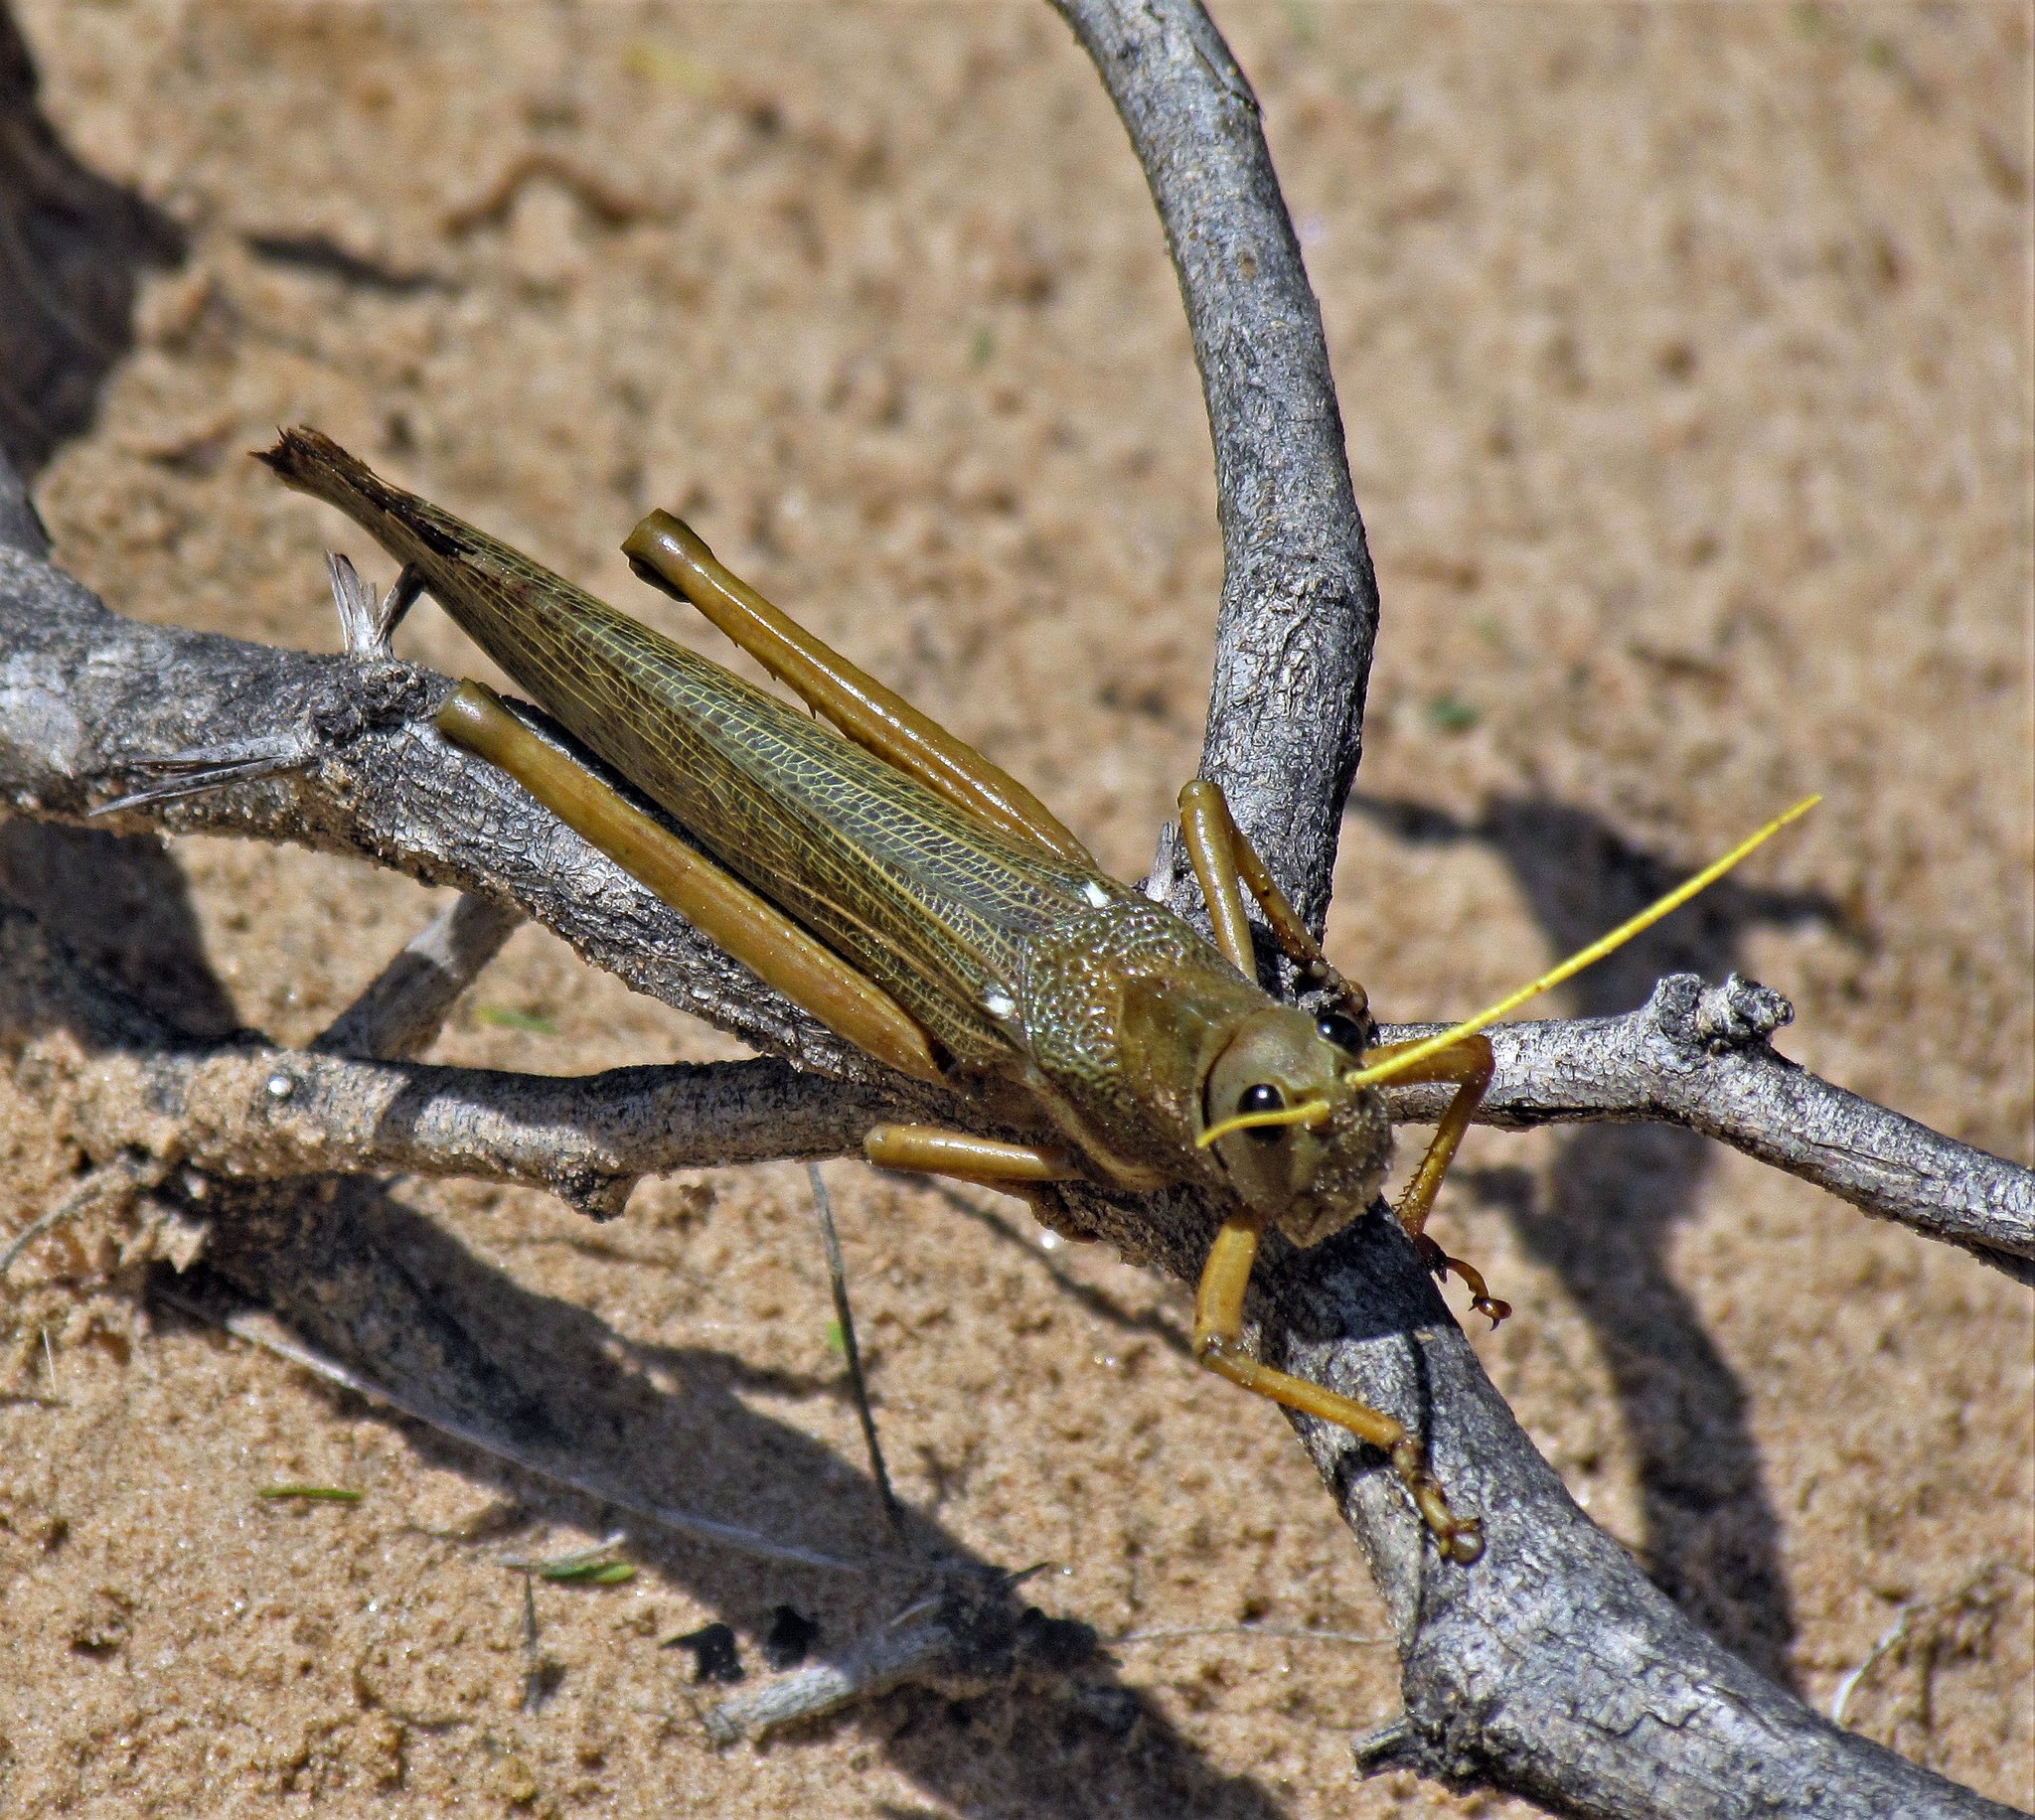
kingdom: Animalia
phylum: Arthropoda
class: Insecta
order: Orthoptera
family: Romaleidae
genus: Tropidacris
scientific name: Tropidacris collaris
